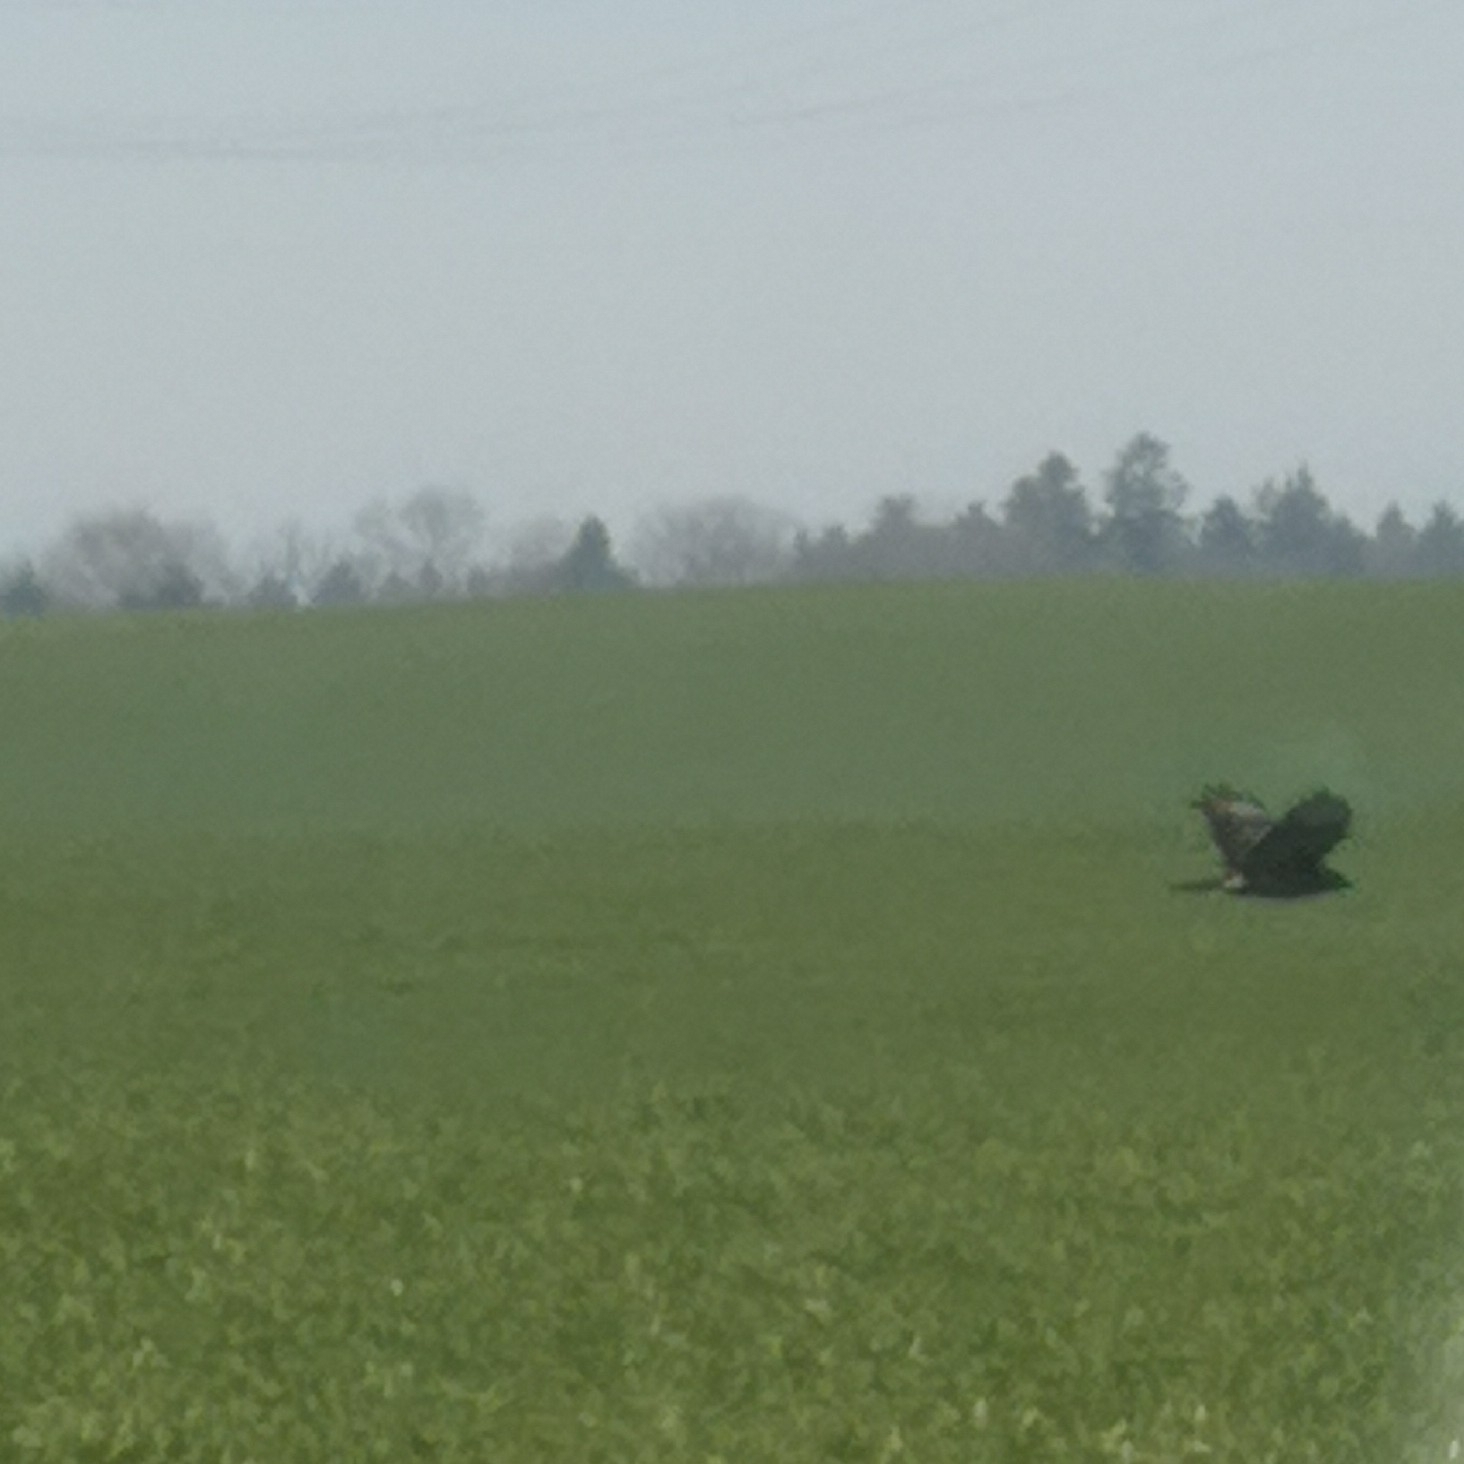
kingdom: Animalia
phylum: Chordata
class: Aves
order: Accipitriformes
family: Accipitridae
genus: Buteo
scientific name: Buteo buteo
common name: Common buzzard
